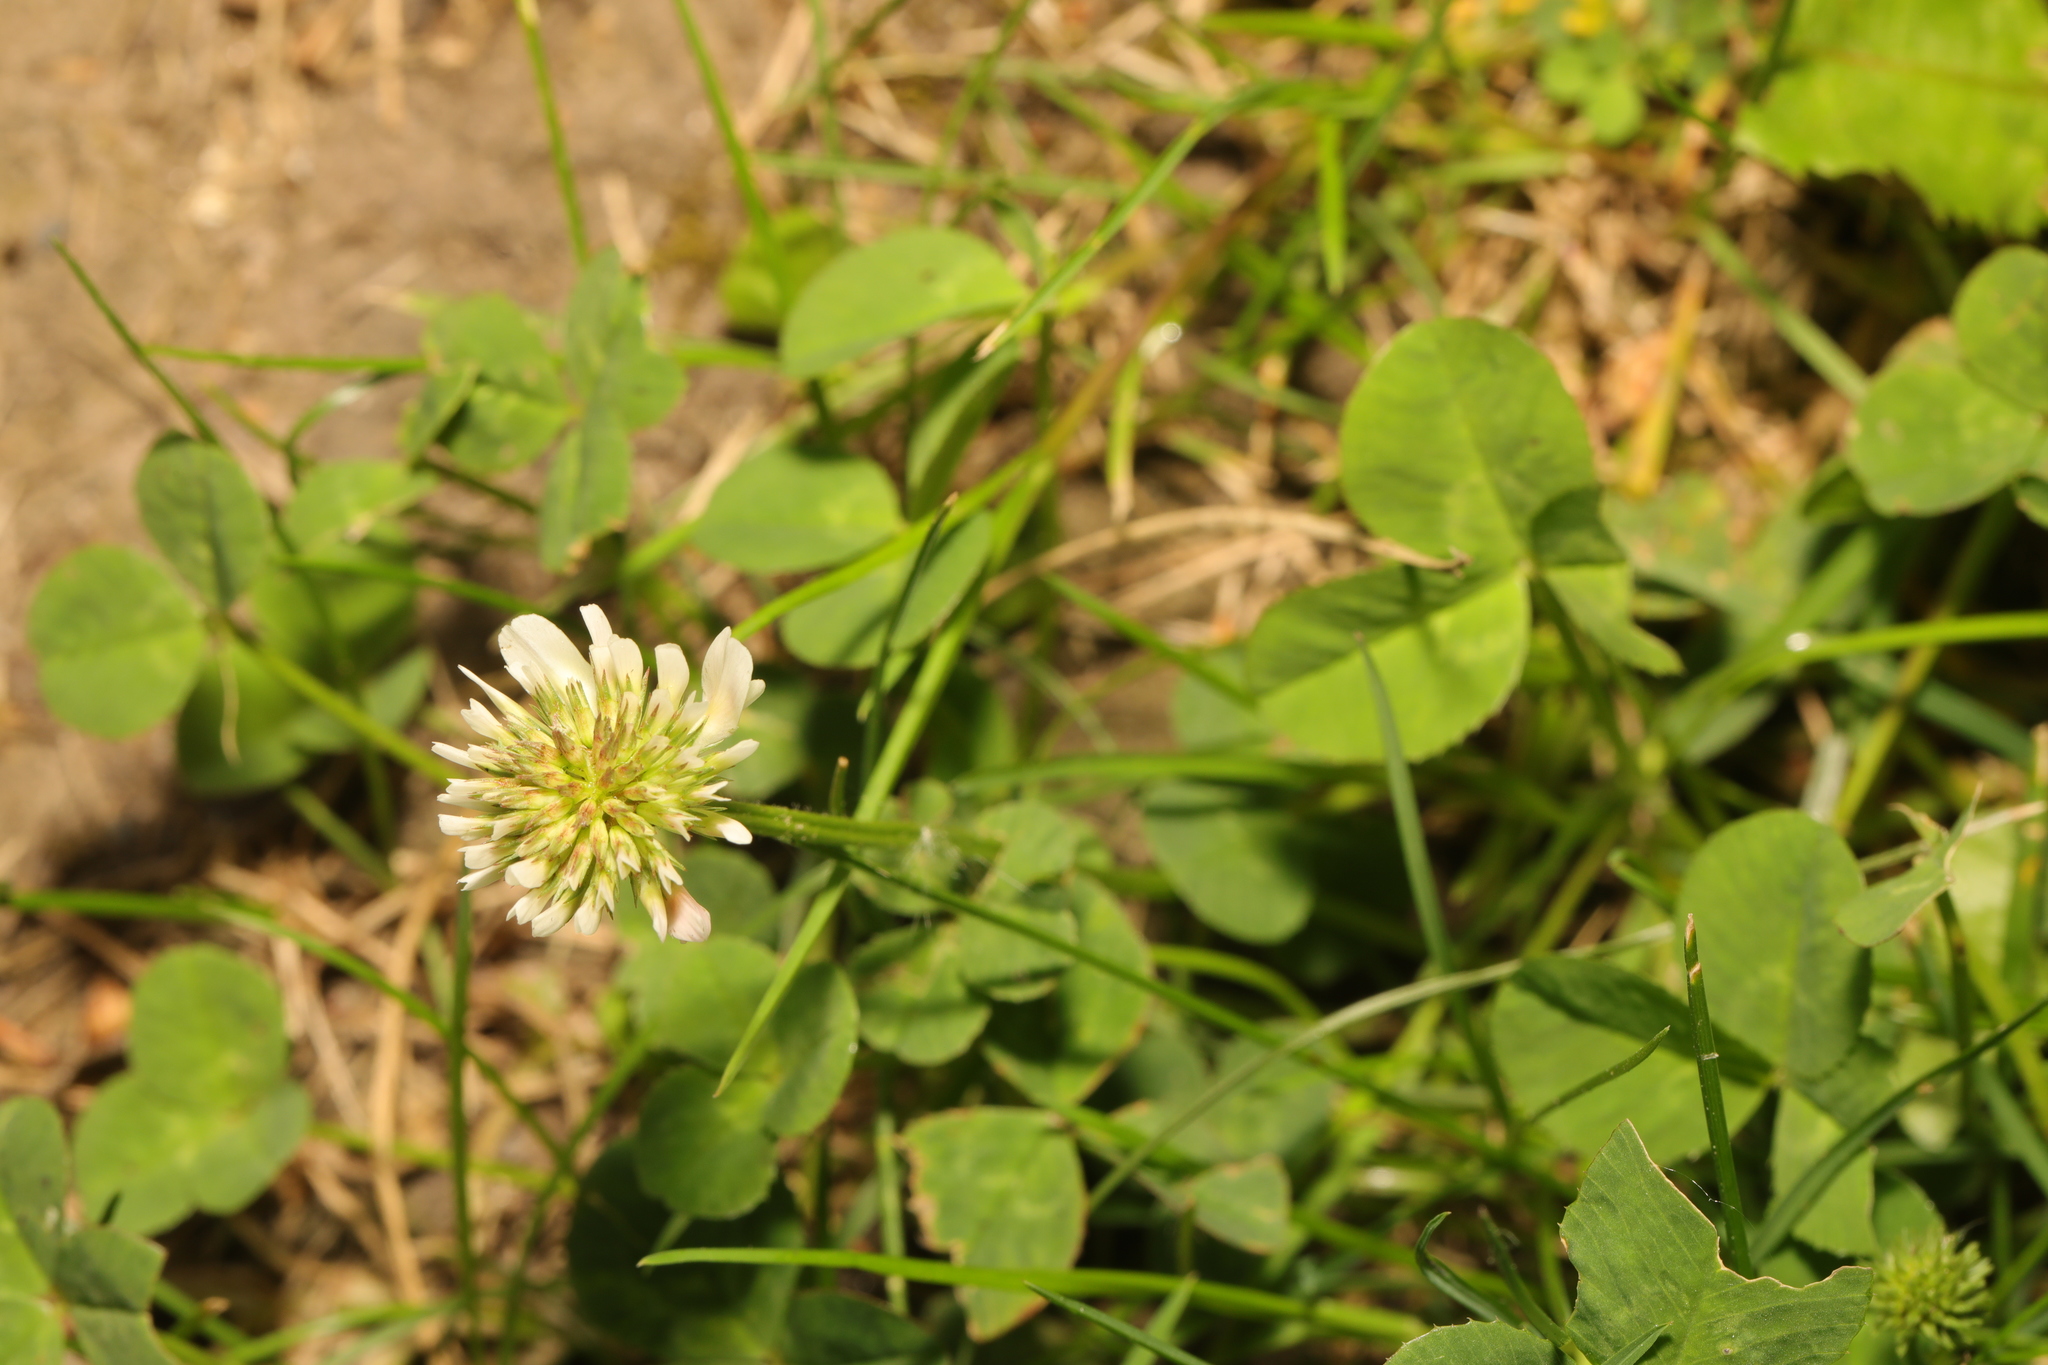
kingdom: Plantae
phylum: Tracheophyta
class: Magnoliopsida
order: Fabales
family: Fabaceae
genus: Trifolium
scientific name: Trifolium repens
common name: White clover
